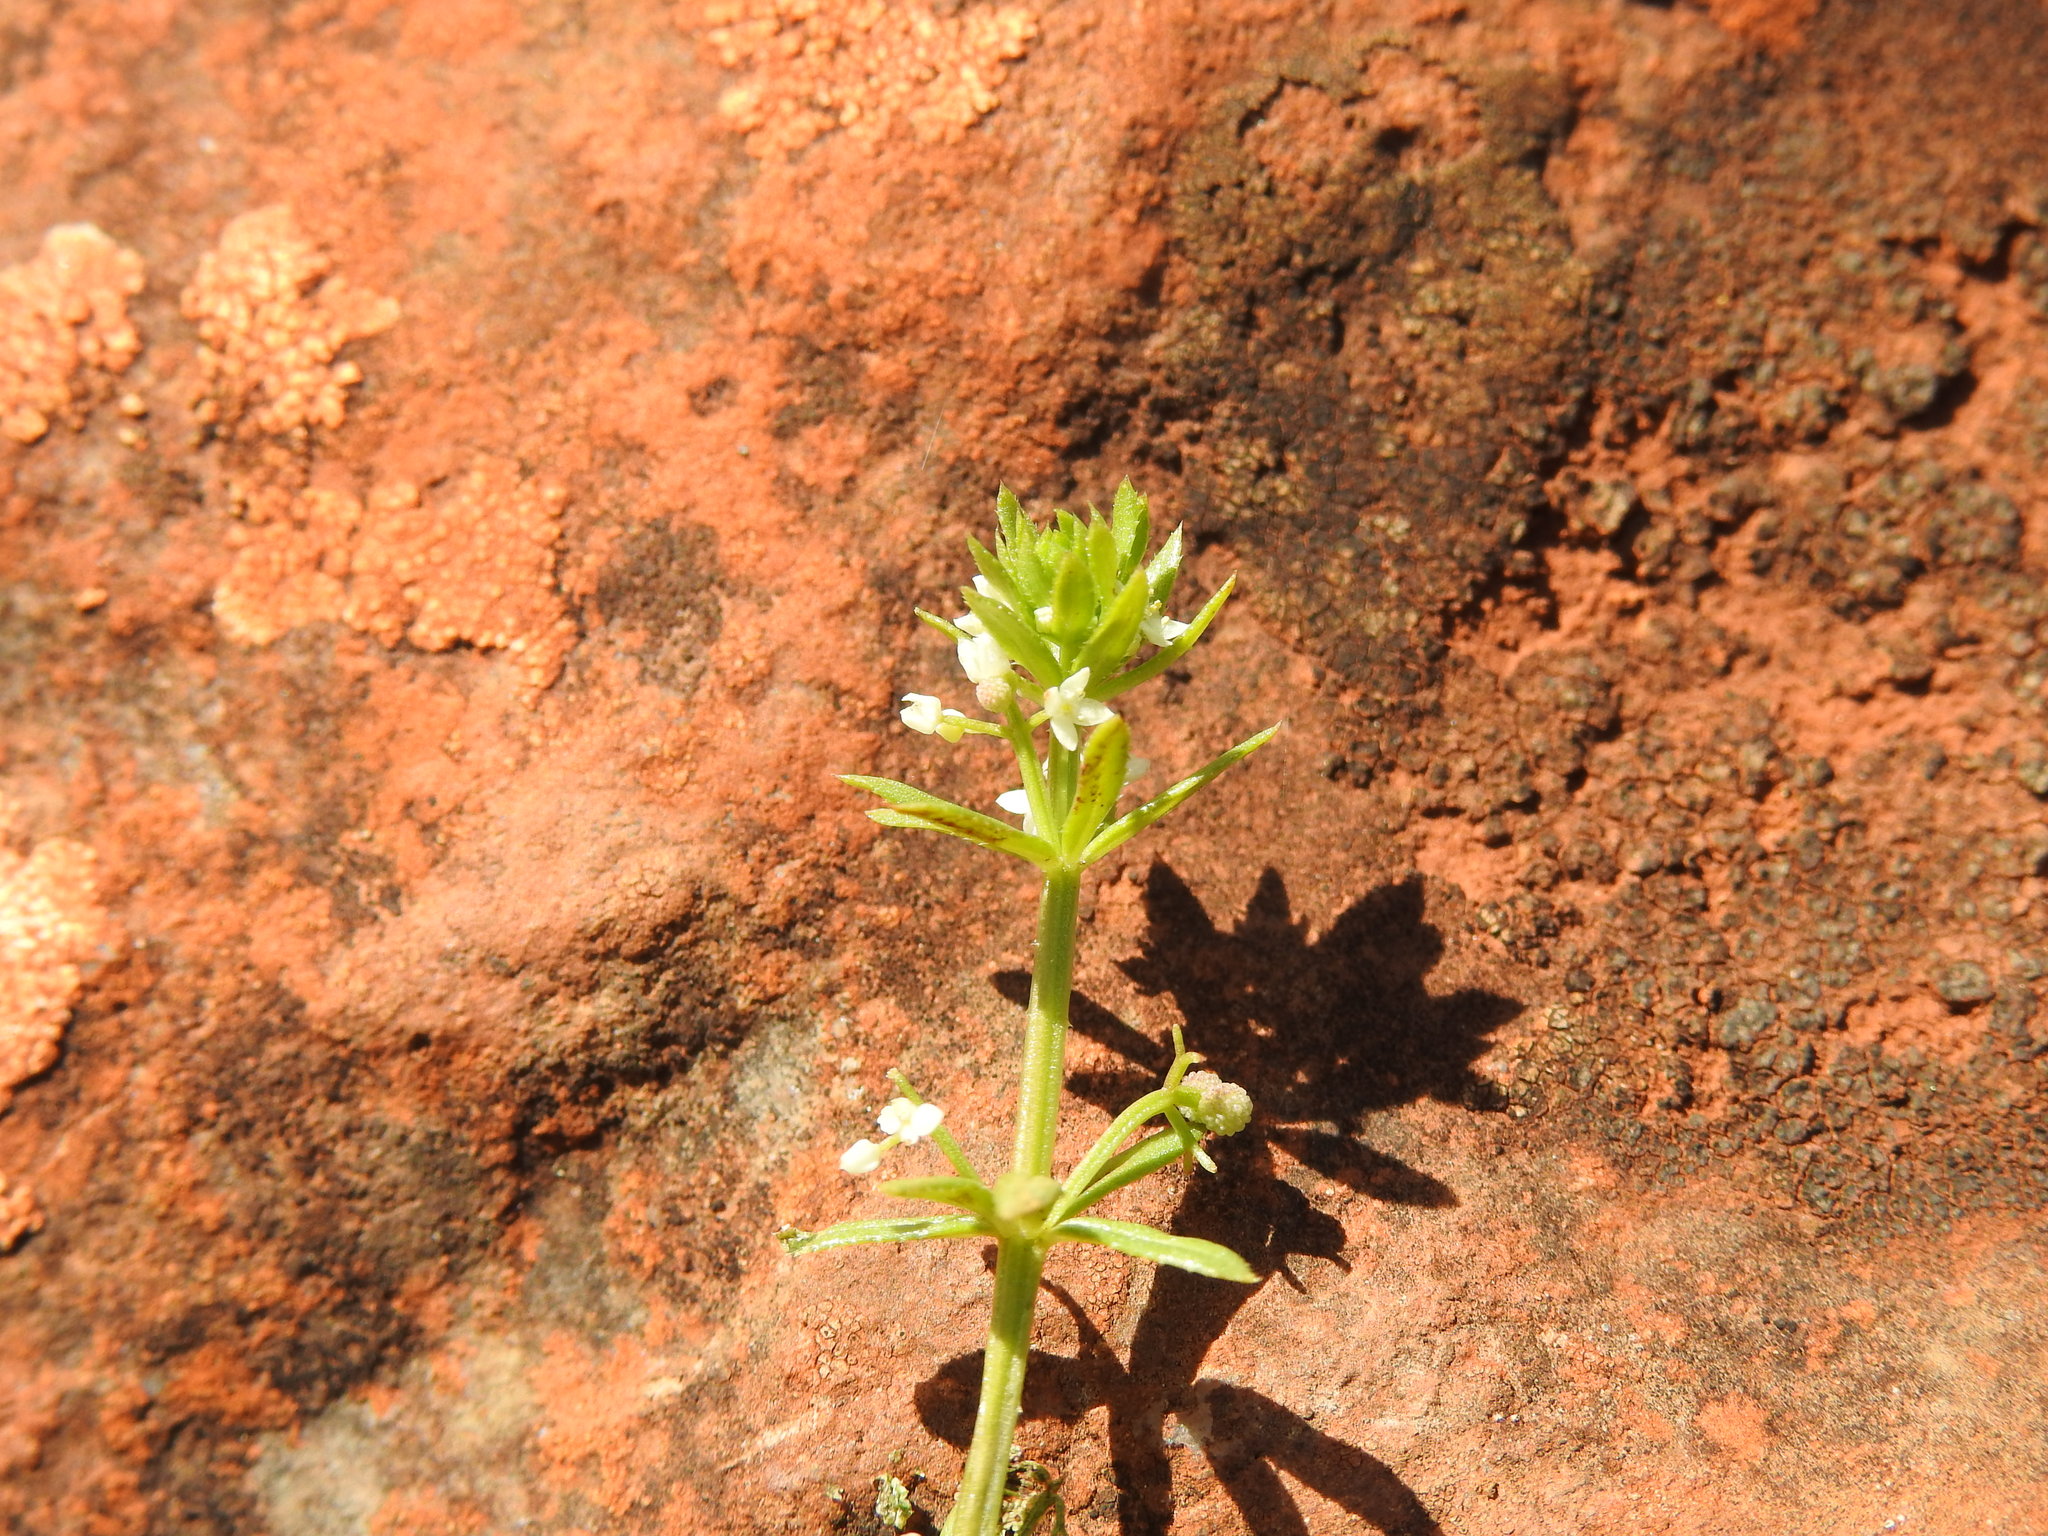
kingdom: Plantae
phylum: Tracheophyta
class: Magnoliopsida
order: Gentianales
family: Rubiaceae
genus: Galium
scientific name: Galium verrucosum
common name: Warty bedstraw
